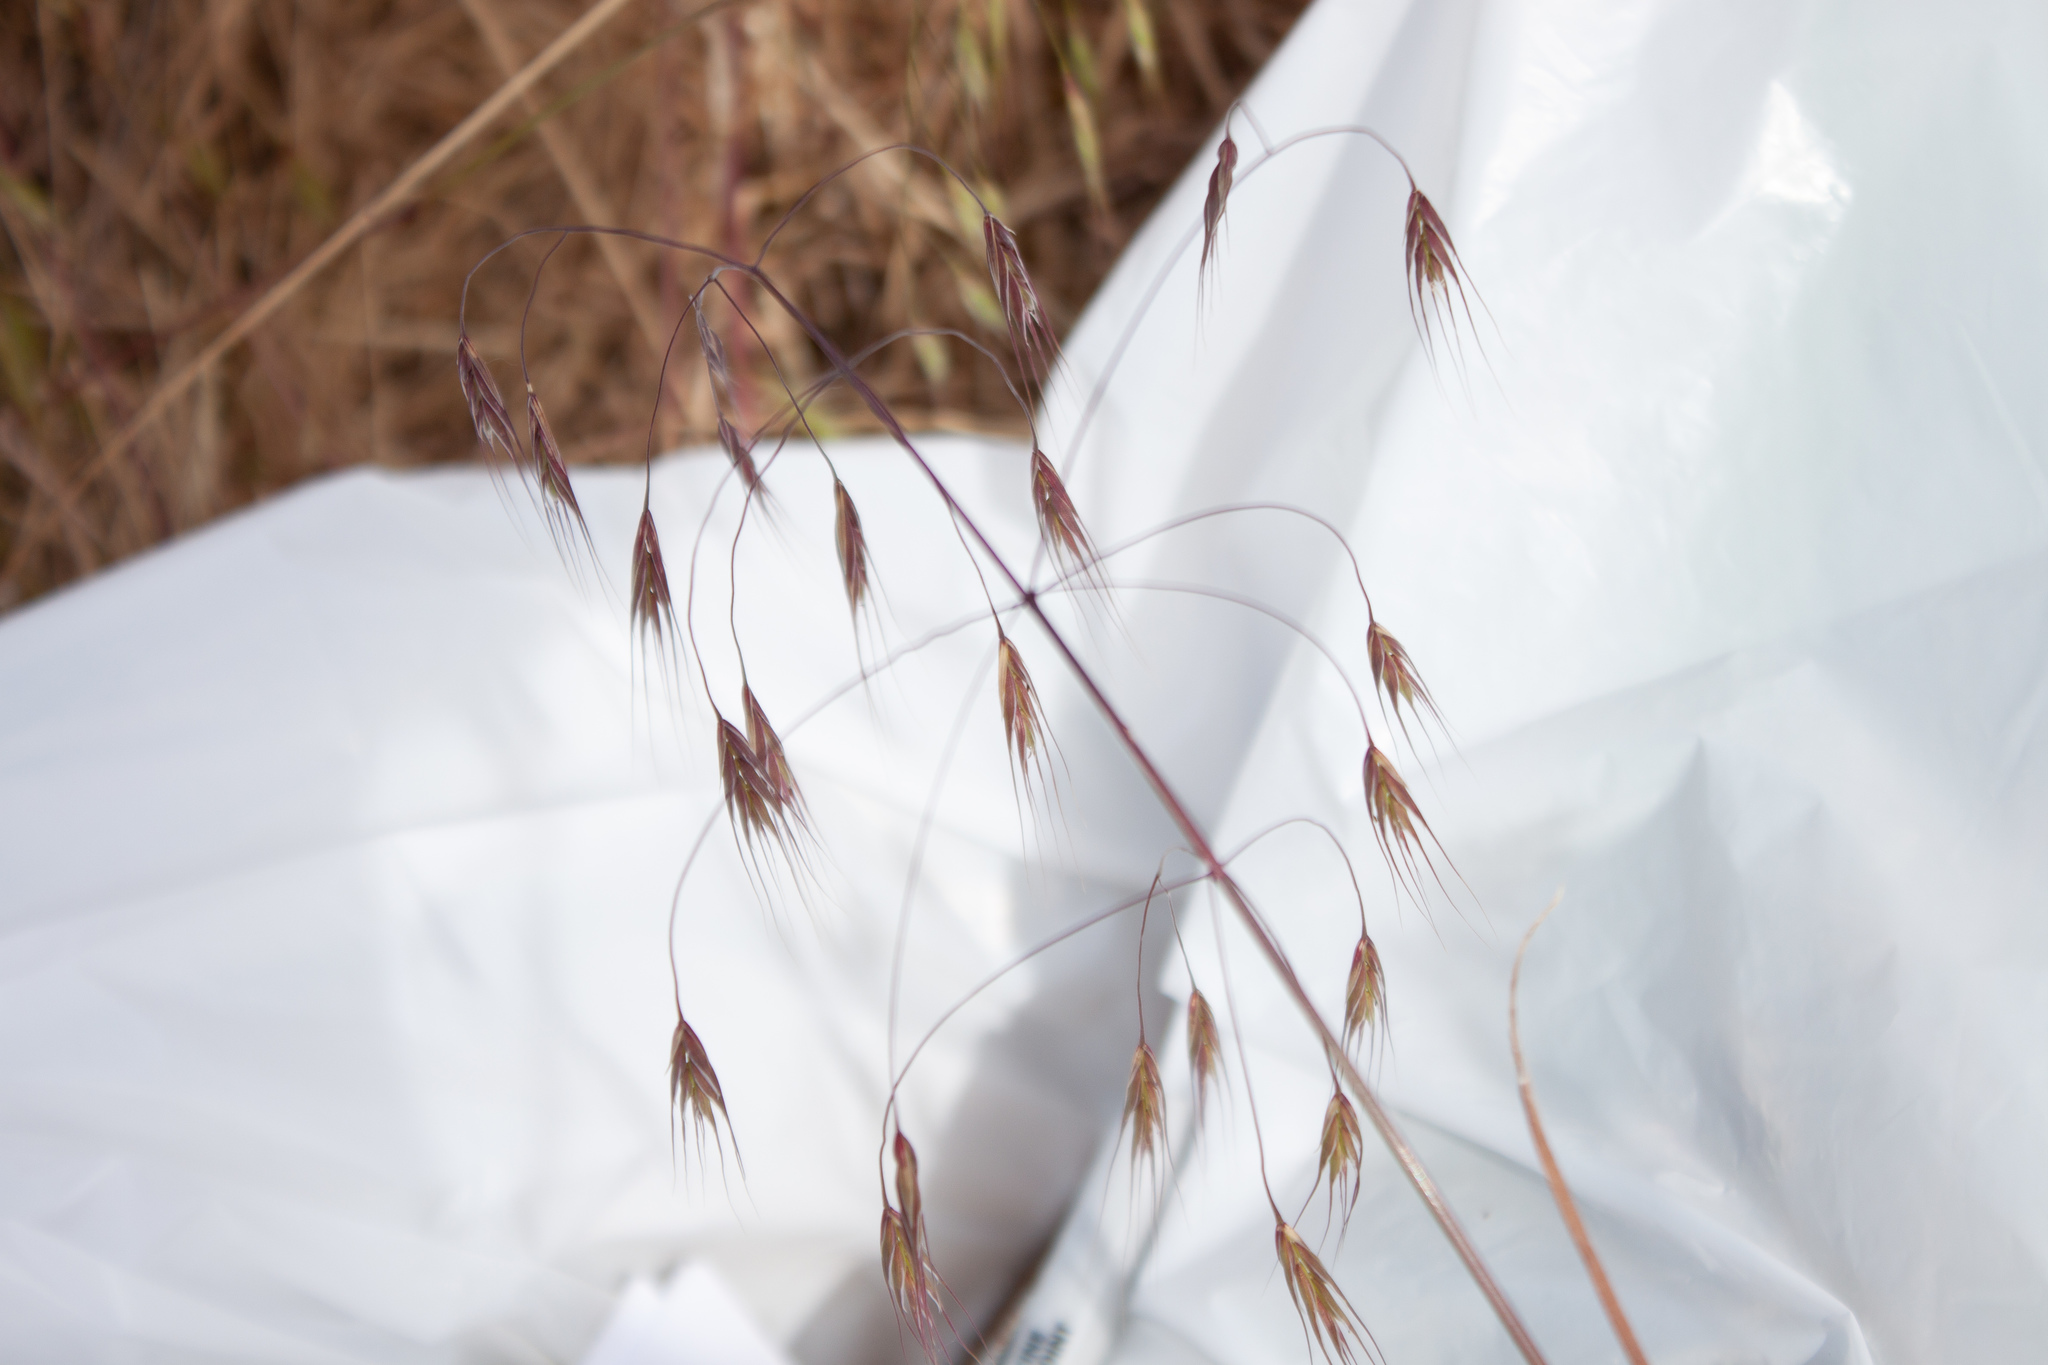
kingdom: Plantae
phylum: Tracheophyta
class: Liliopsida
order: Poales
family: Poaceae
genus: Bromus
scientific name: Bromus sterilis
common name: Poverty brome
